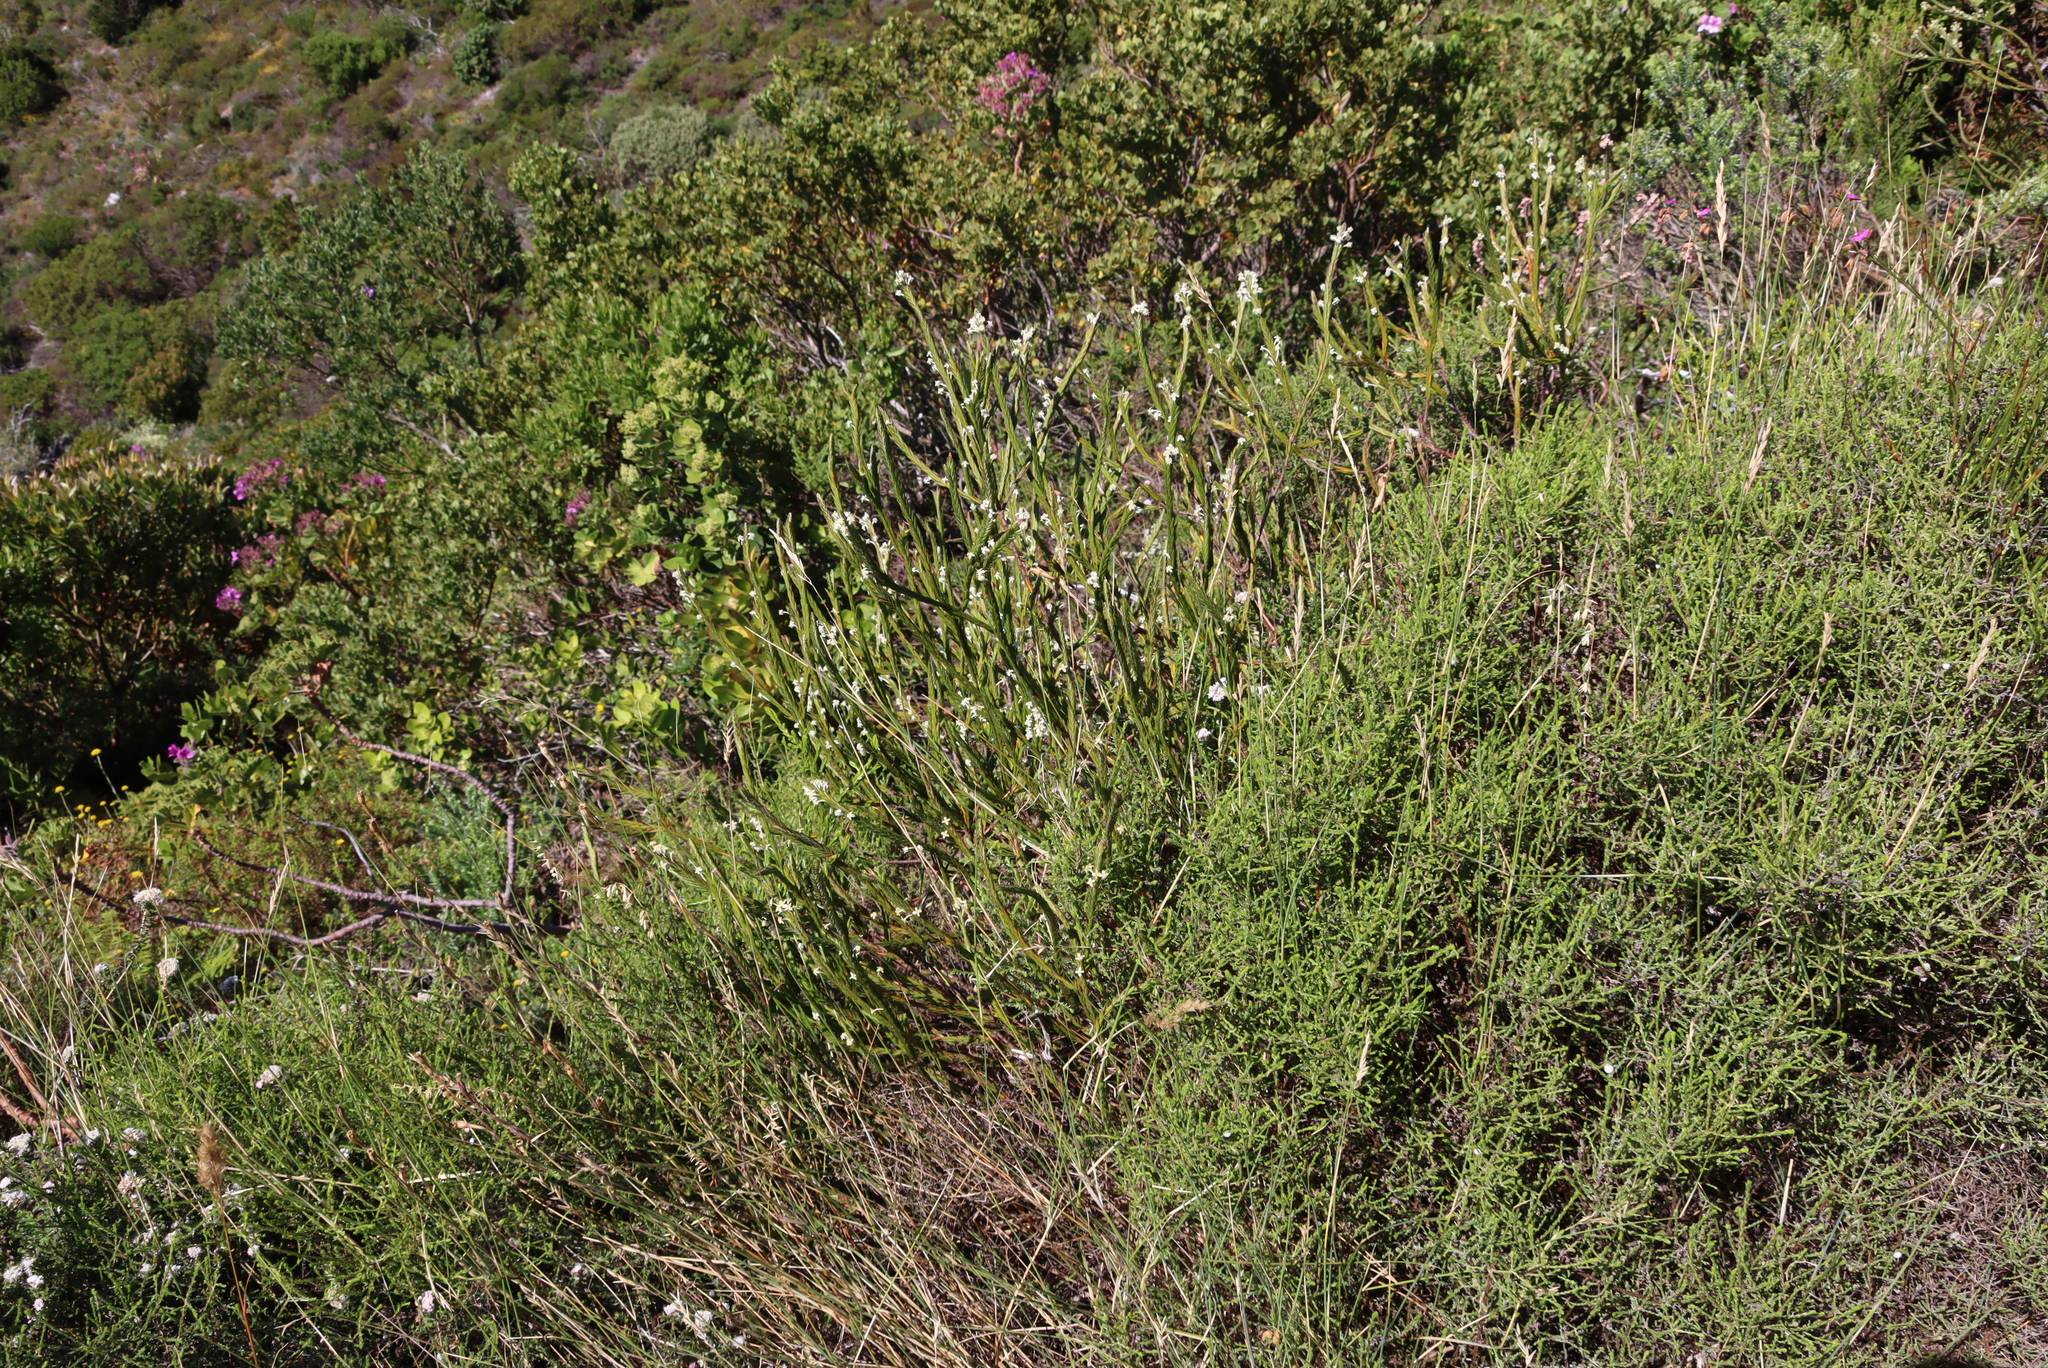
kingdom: Plantae
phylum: Tracheophyta
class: Magnoliopsida
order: Malvales
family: Thymelaeaceae
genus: Struthiola
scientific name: Struthiola ciliata
